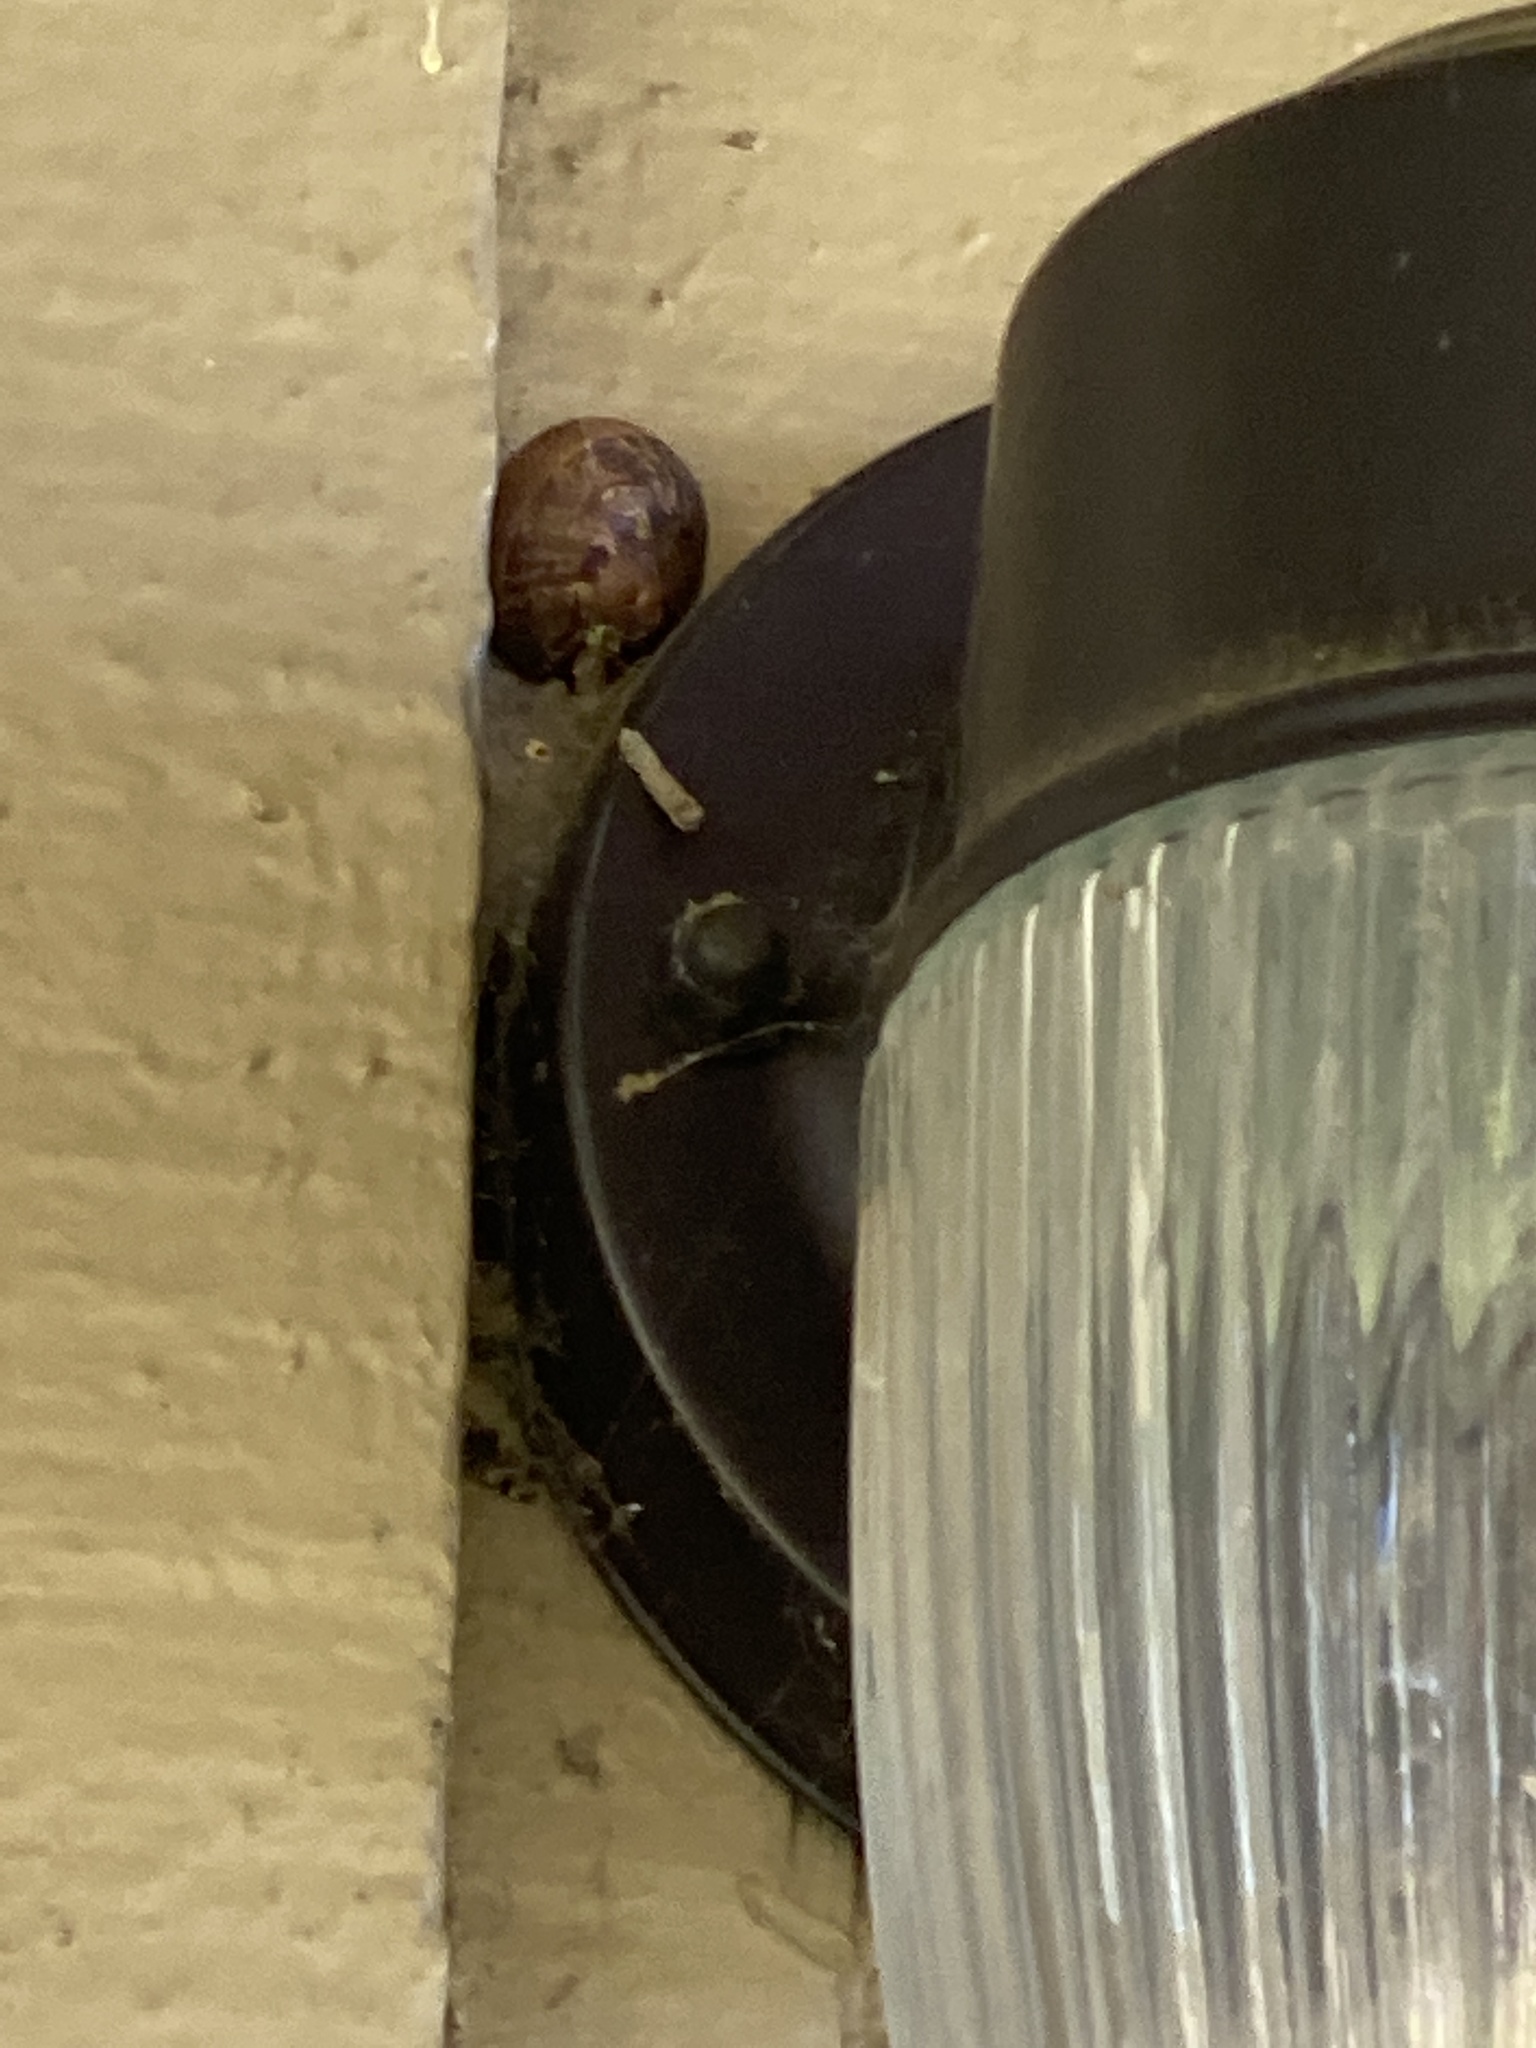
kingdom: Animalia
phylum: Mollusca
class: Gastropoda
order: Stylommatophora
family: Helicidae
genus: Cornu
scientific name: Cornu aspersum
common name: Brown garden snail
